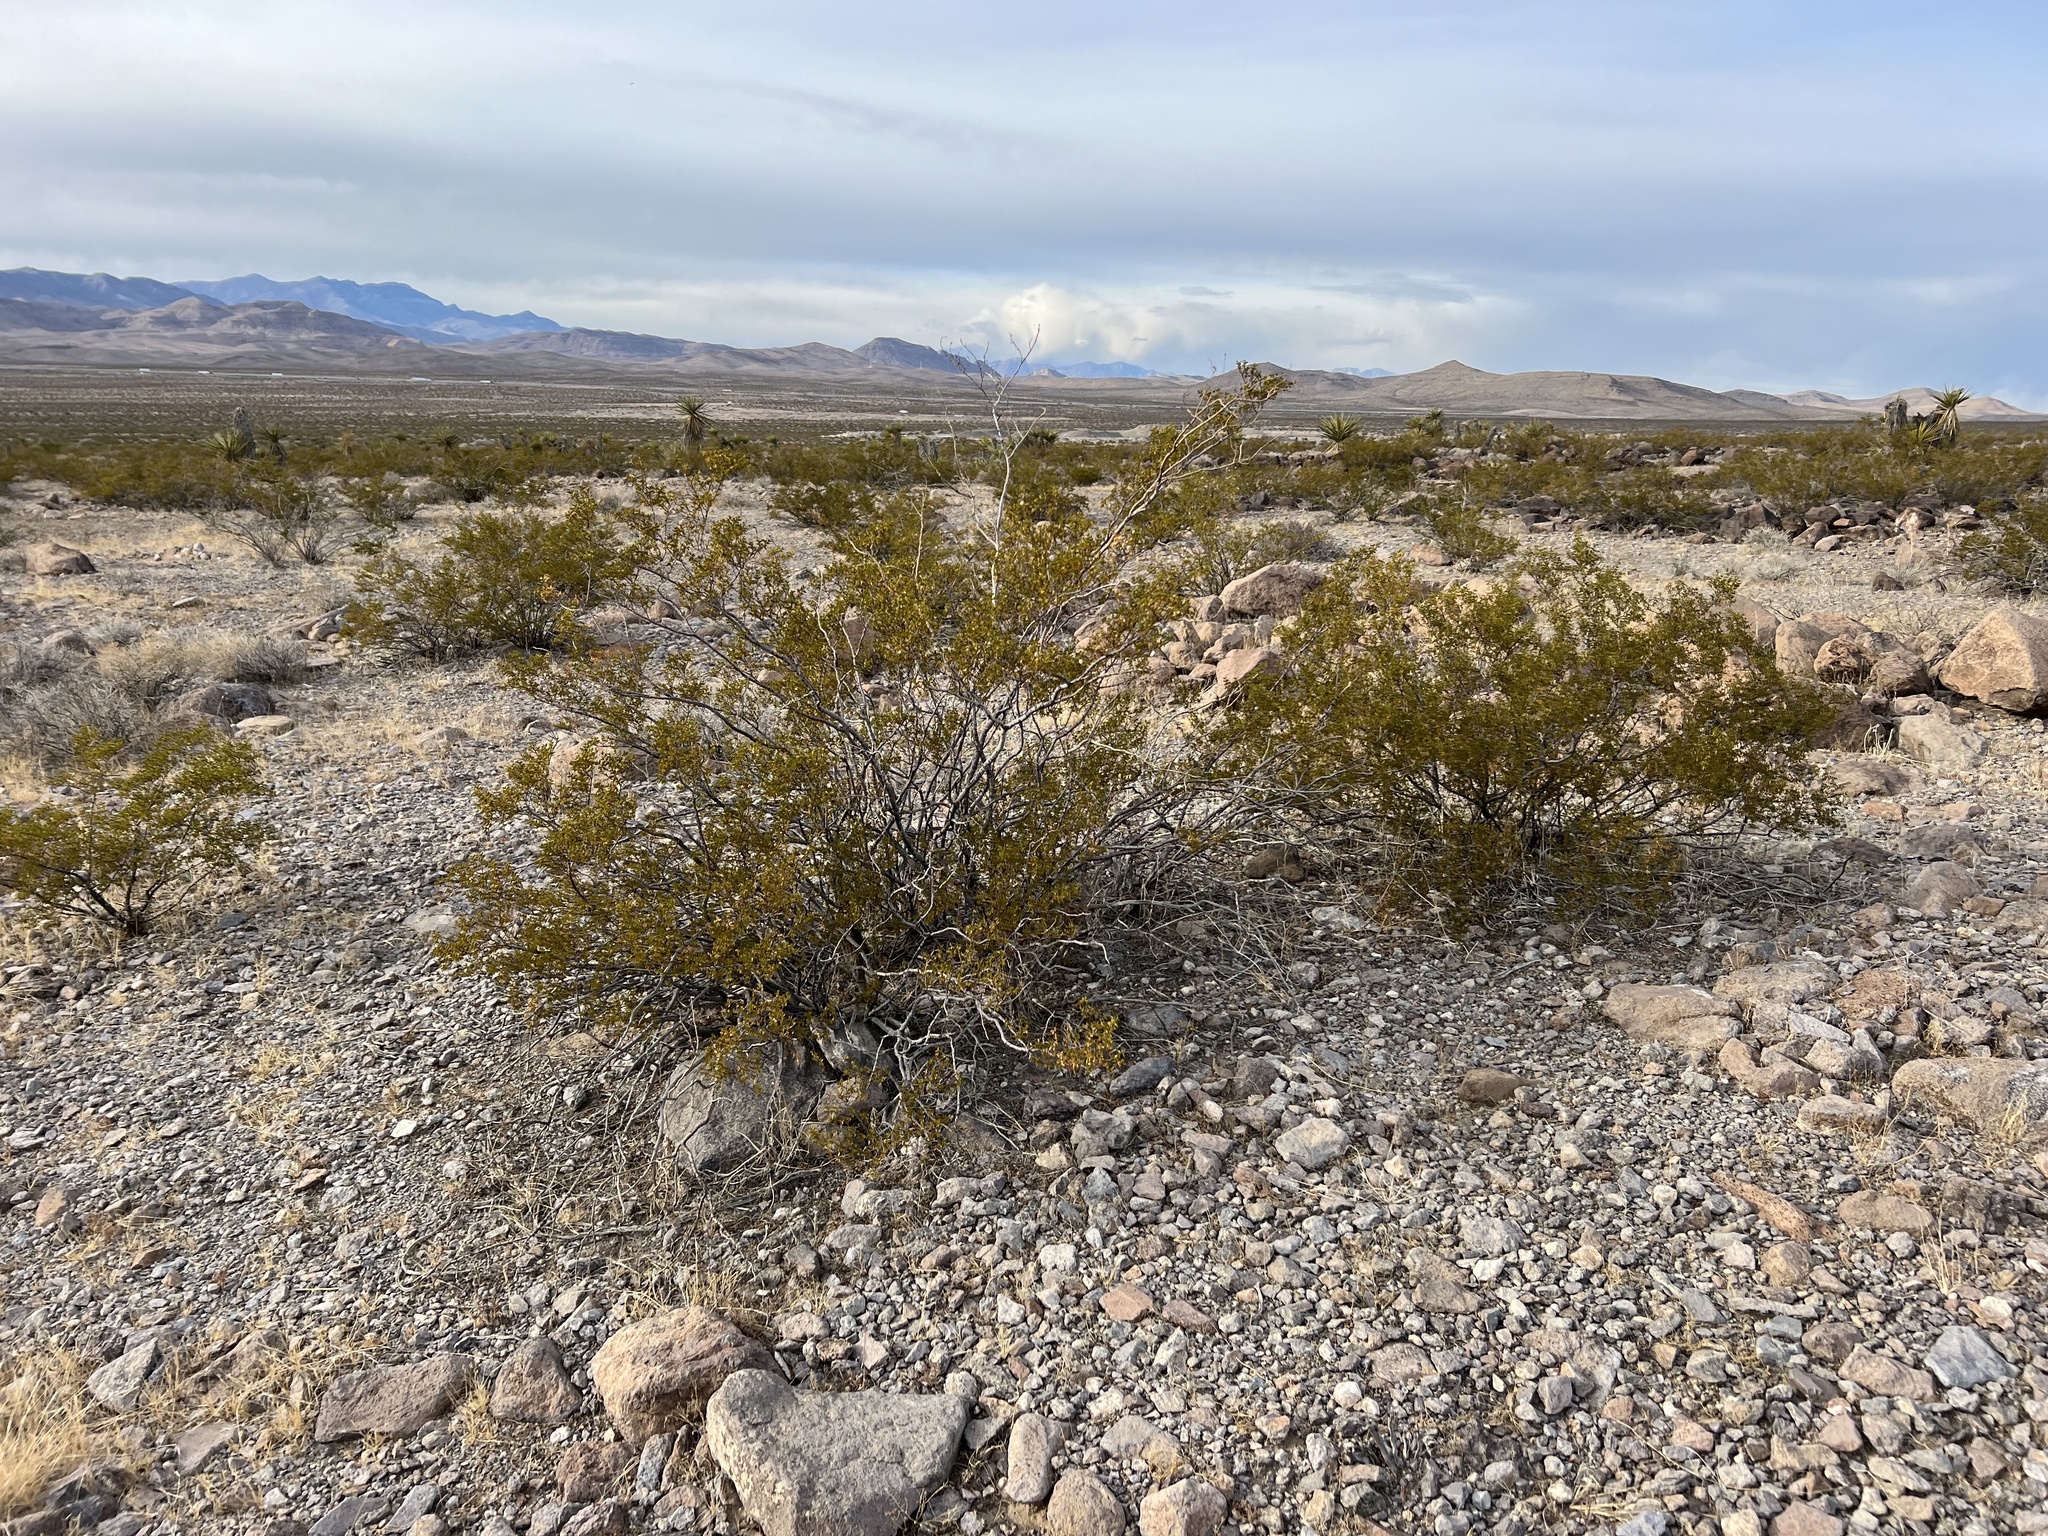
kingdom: Plantae
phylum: Tracheophyta
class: Magnoliopsida
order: Zygophyllales
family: Zygophyllaceae
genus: Larrea
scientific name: Larrea tridentata
